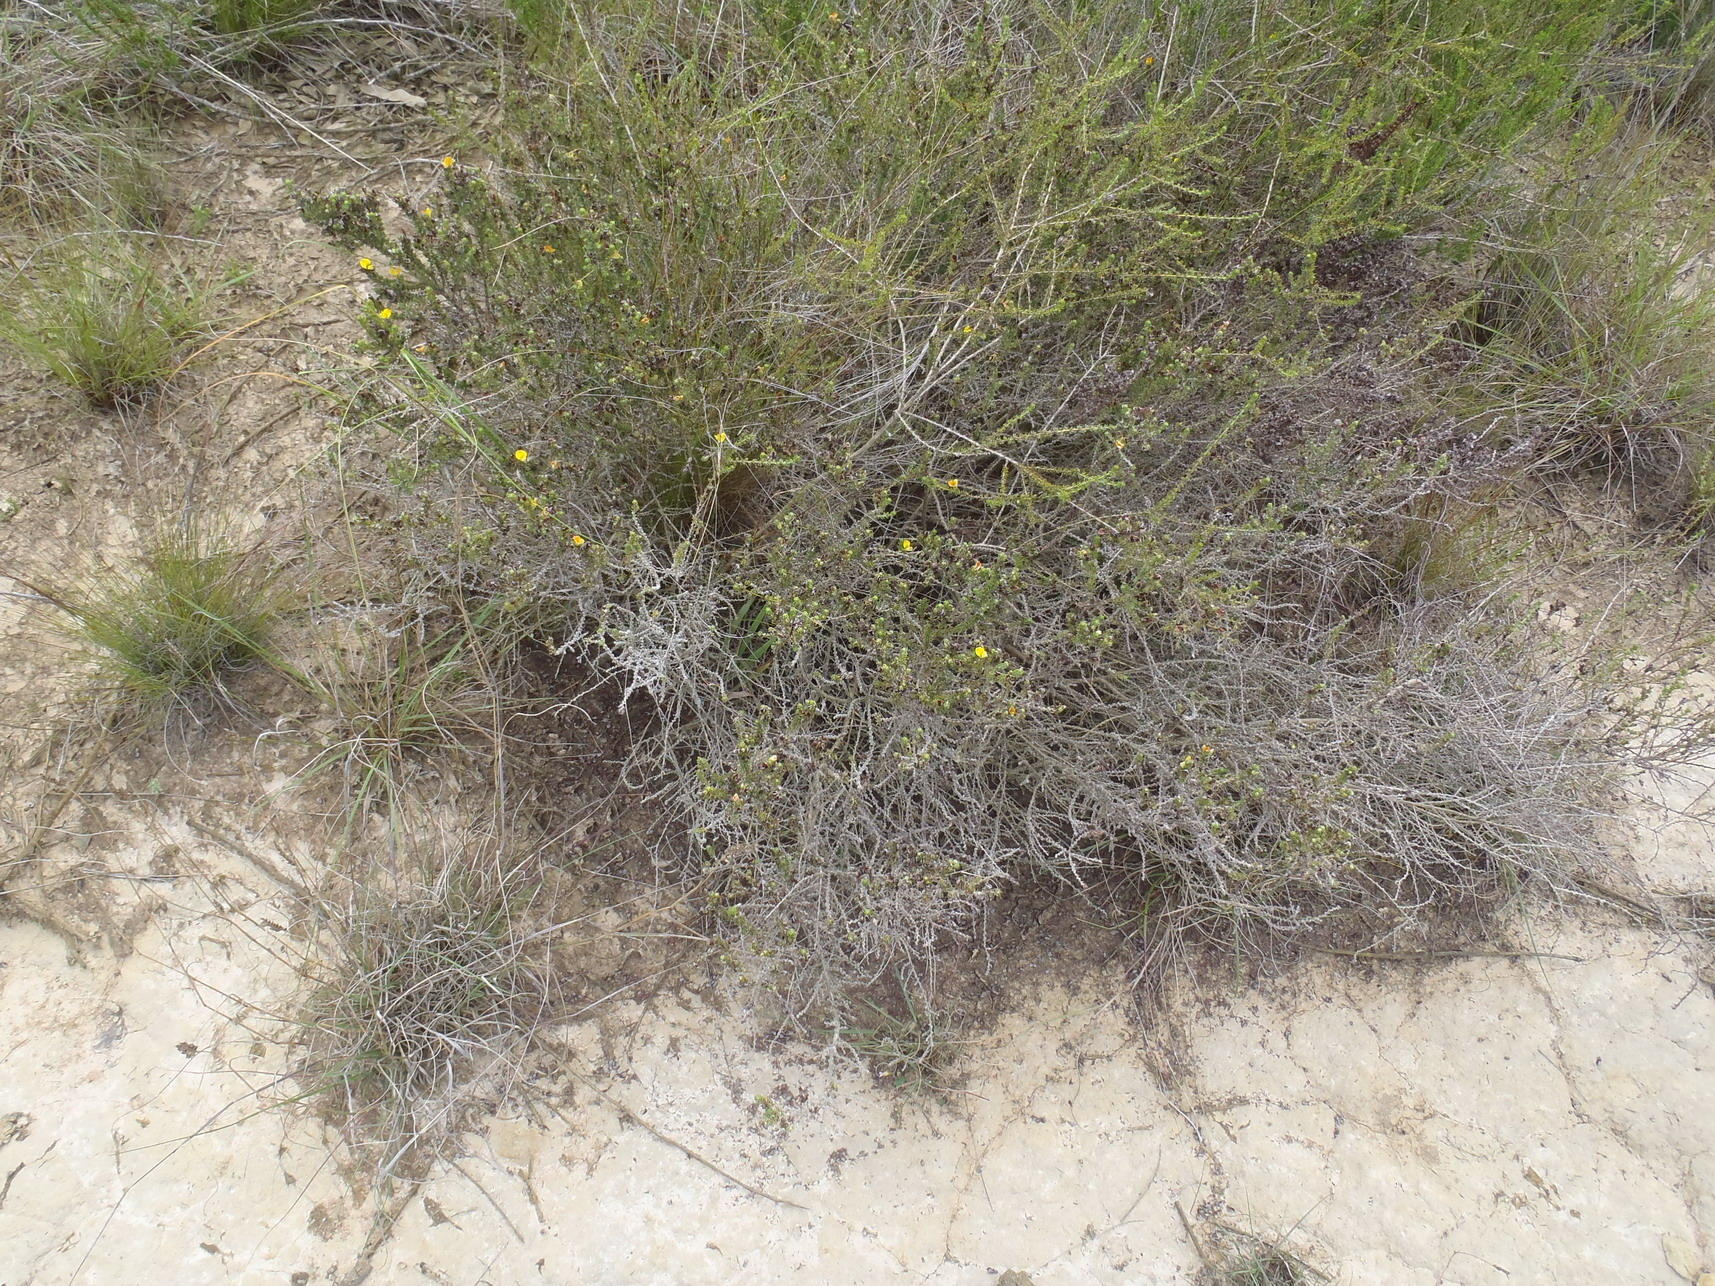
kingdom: Plantae
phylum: Tracheophyta
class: Magnoliopsida
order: Fabales
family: Fabaceae
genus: Aspalathus
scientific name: Aspalathus opaca
